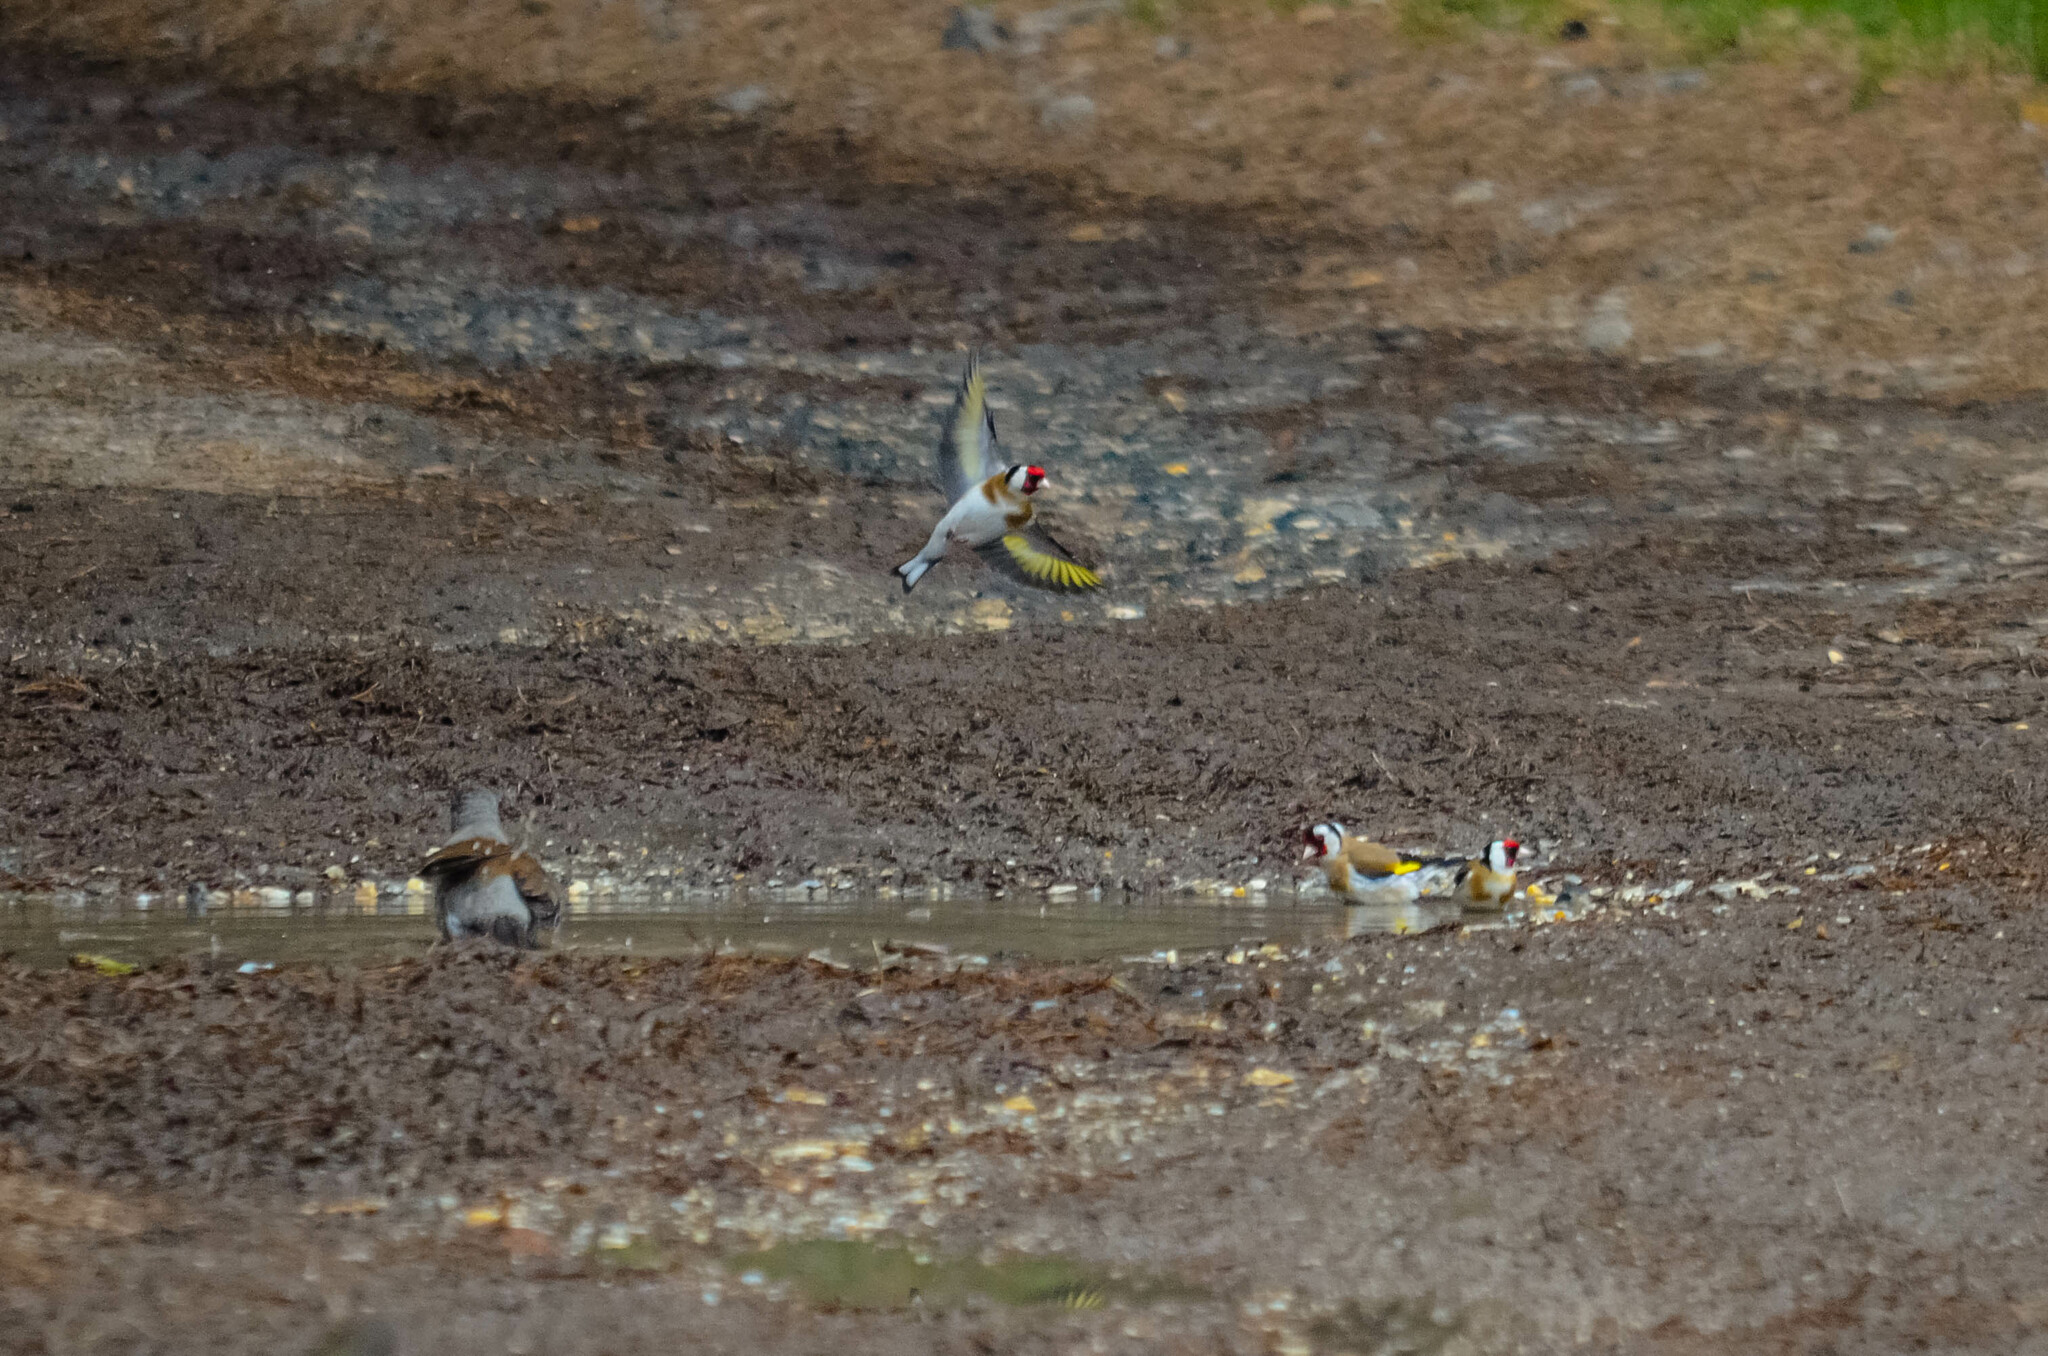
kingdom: Animalia
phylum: Chordata
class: Aves
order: Passeriformes
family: Fringillidae
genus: Carduelis
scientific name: Carduelis carduelis
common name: European goldfinch
